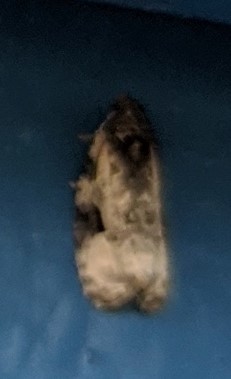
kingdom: Animalia
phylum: Arthropoda
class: Insecta
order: Lepidoptera
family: Tortricidae
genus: Apotomis
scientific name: Apotomis albeolana
